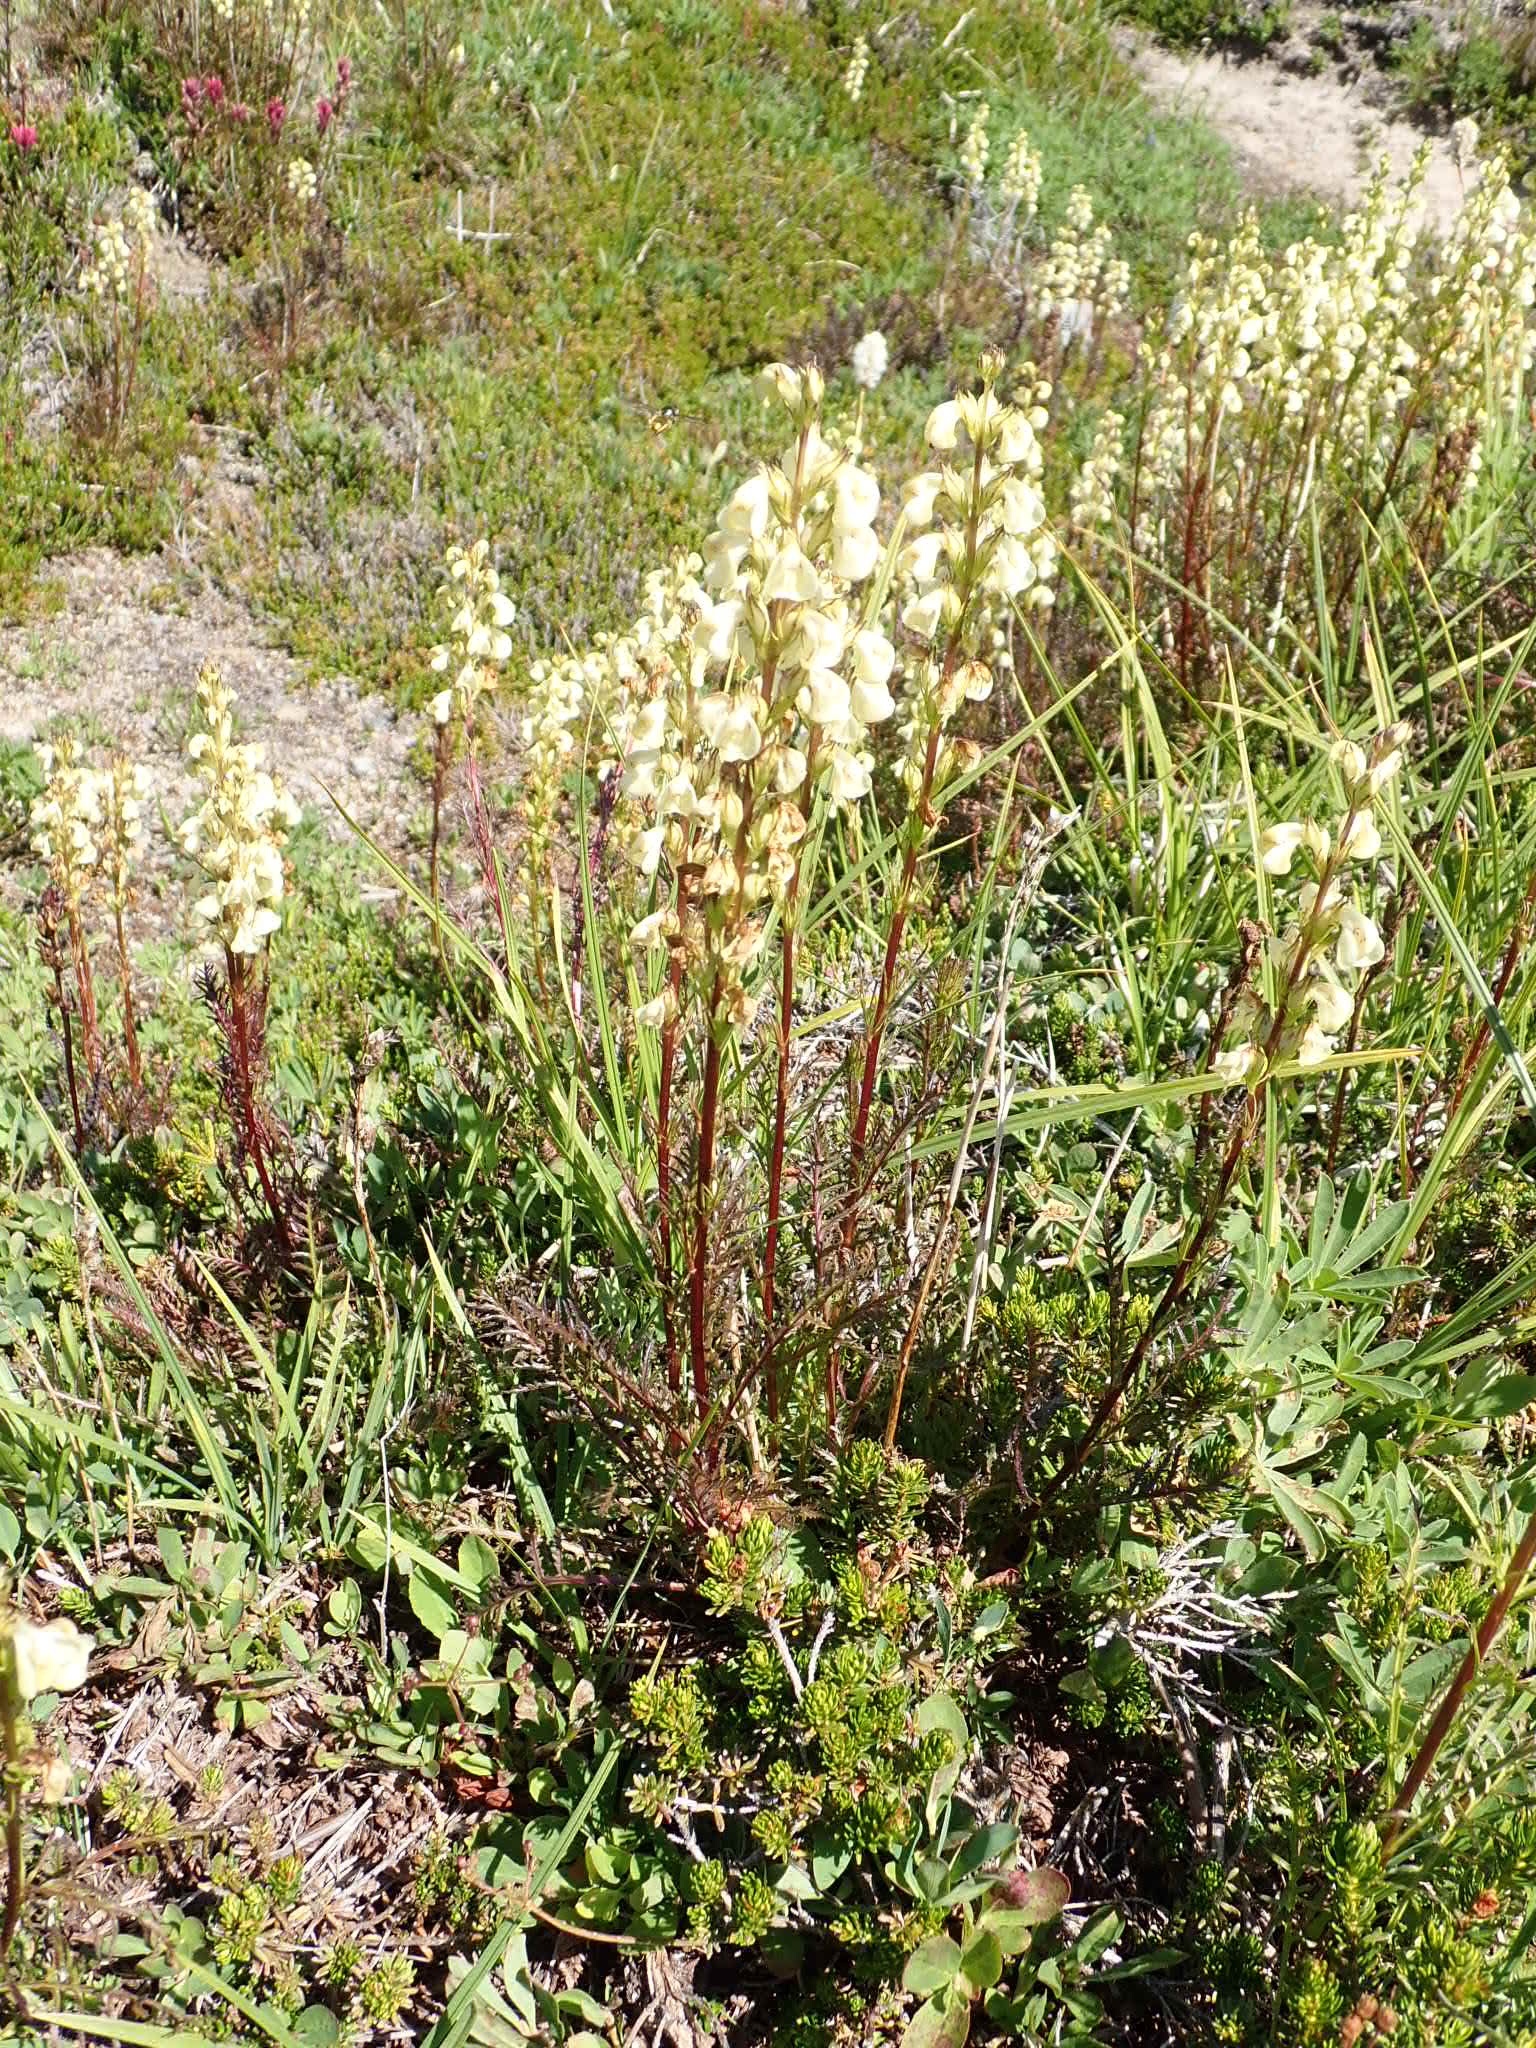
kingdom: Plantae
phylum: Tracheophyta
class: Magnoliopsida
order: Lamiales
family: Orobanchaceae
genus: Pedicularis
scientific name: Pedicularis contorta
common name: Coiled lousewort
